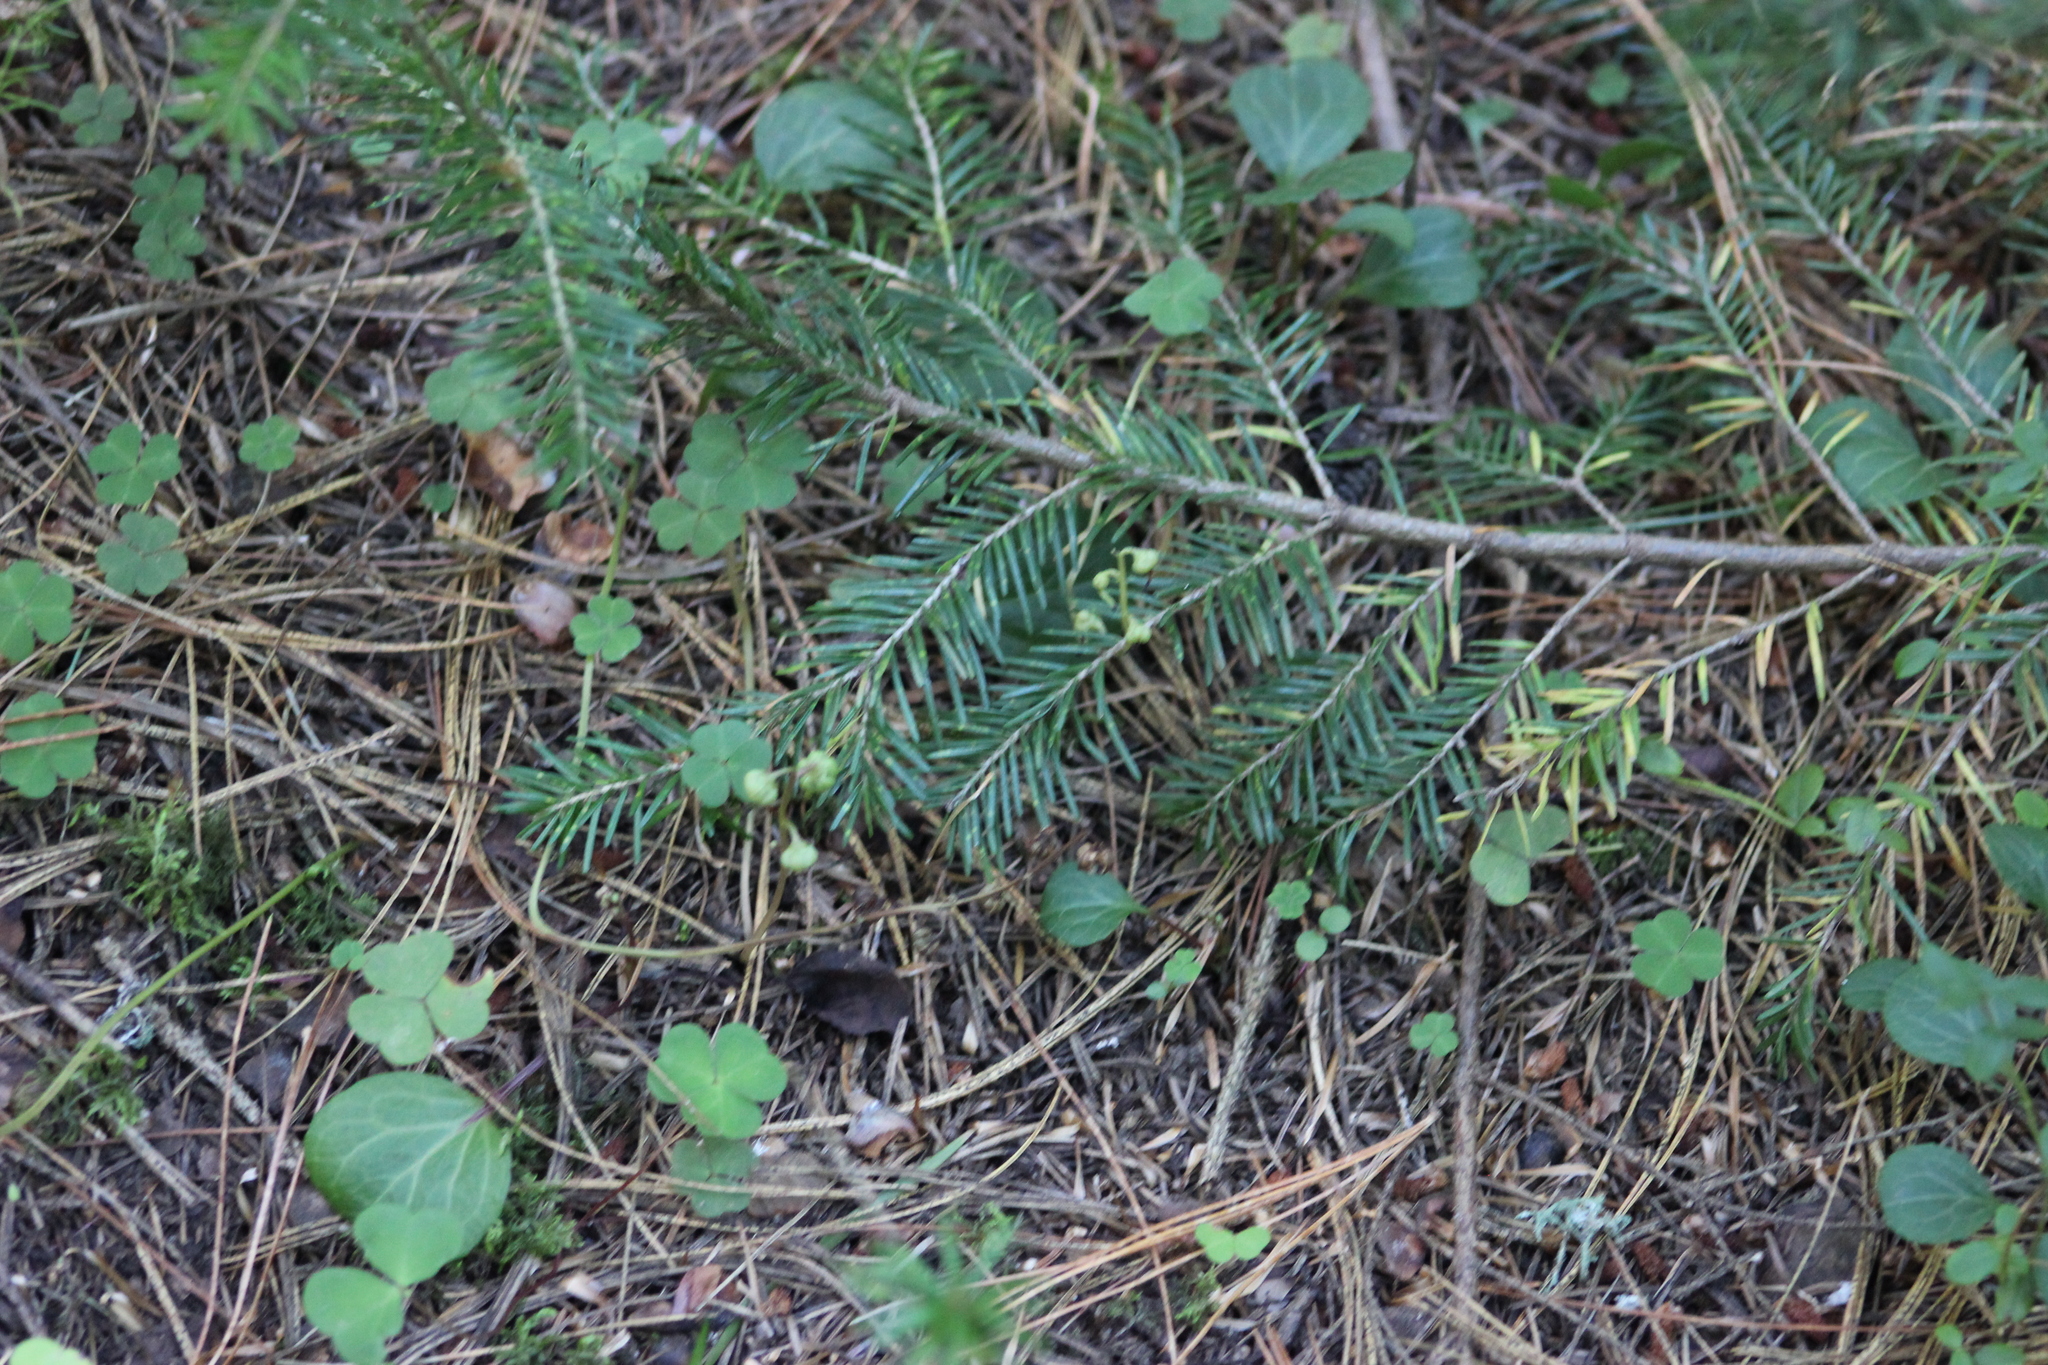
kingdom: Plantae
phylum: Tracheophyta
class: Magnoliopsida
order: Ericales
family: Ericaceae
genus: Pyrola
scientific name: Pyrola chlorantha
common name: Green wintergreen
